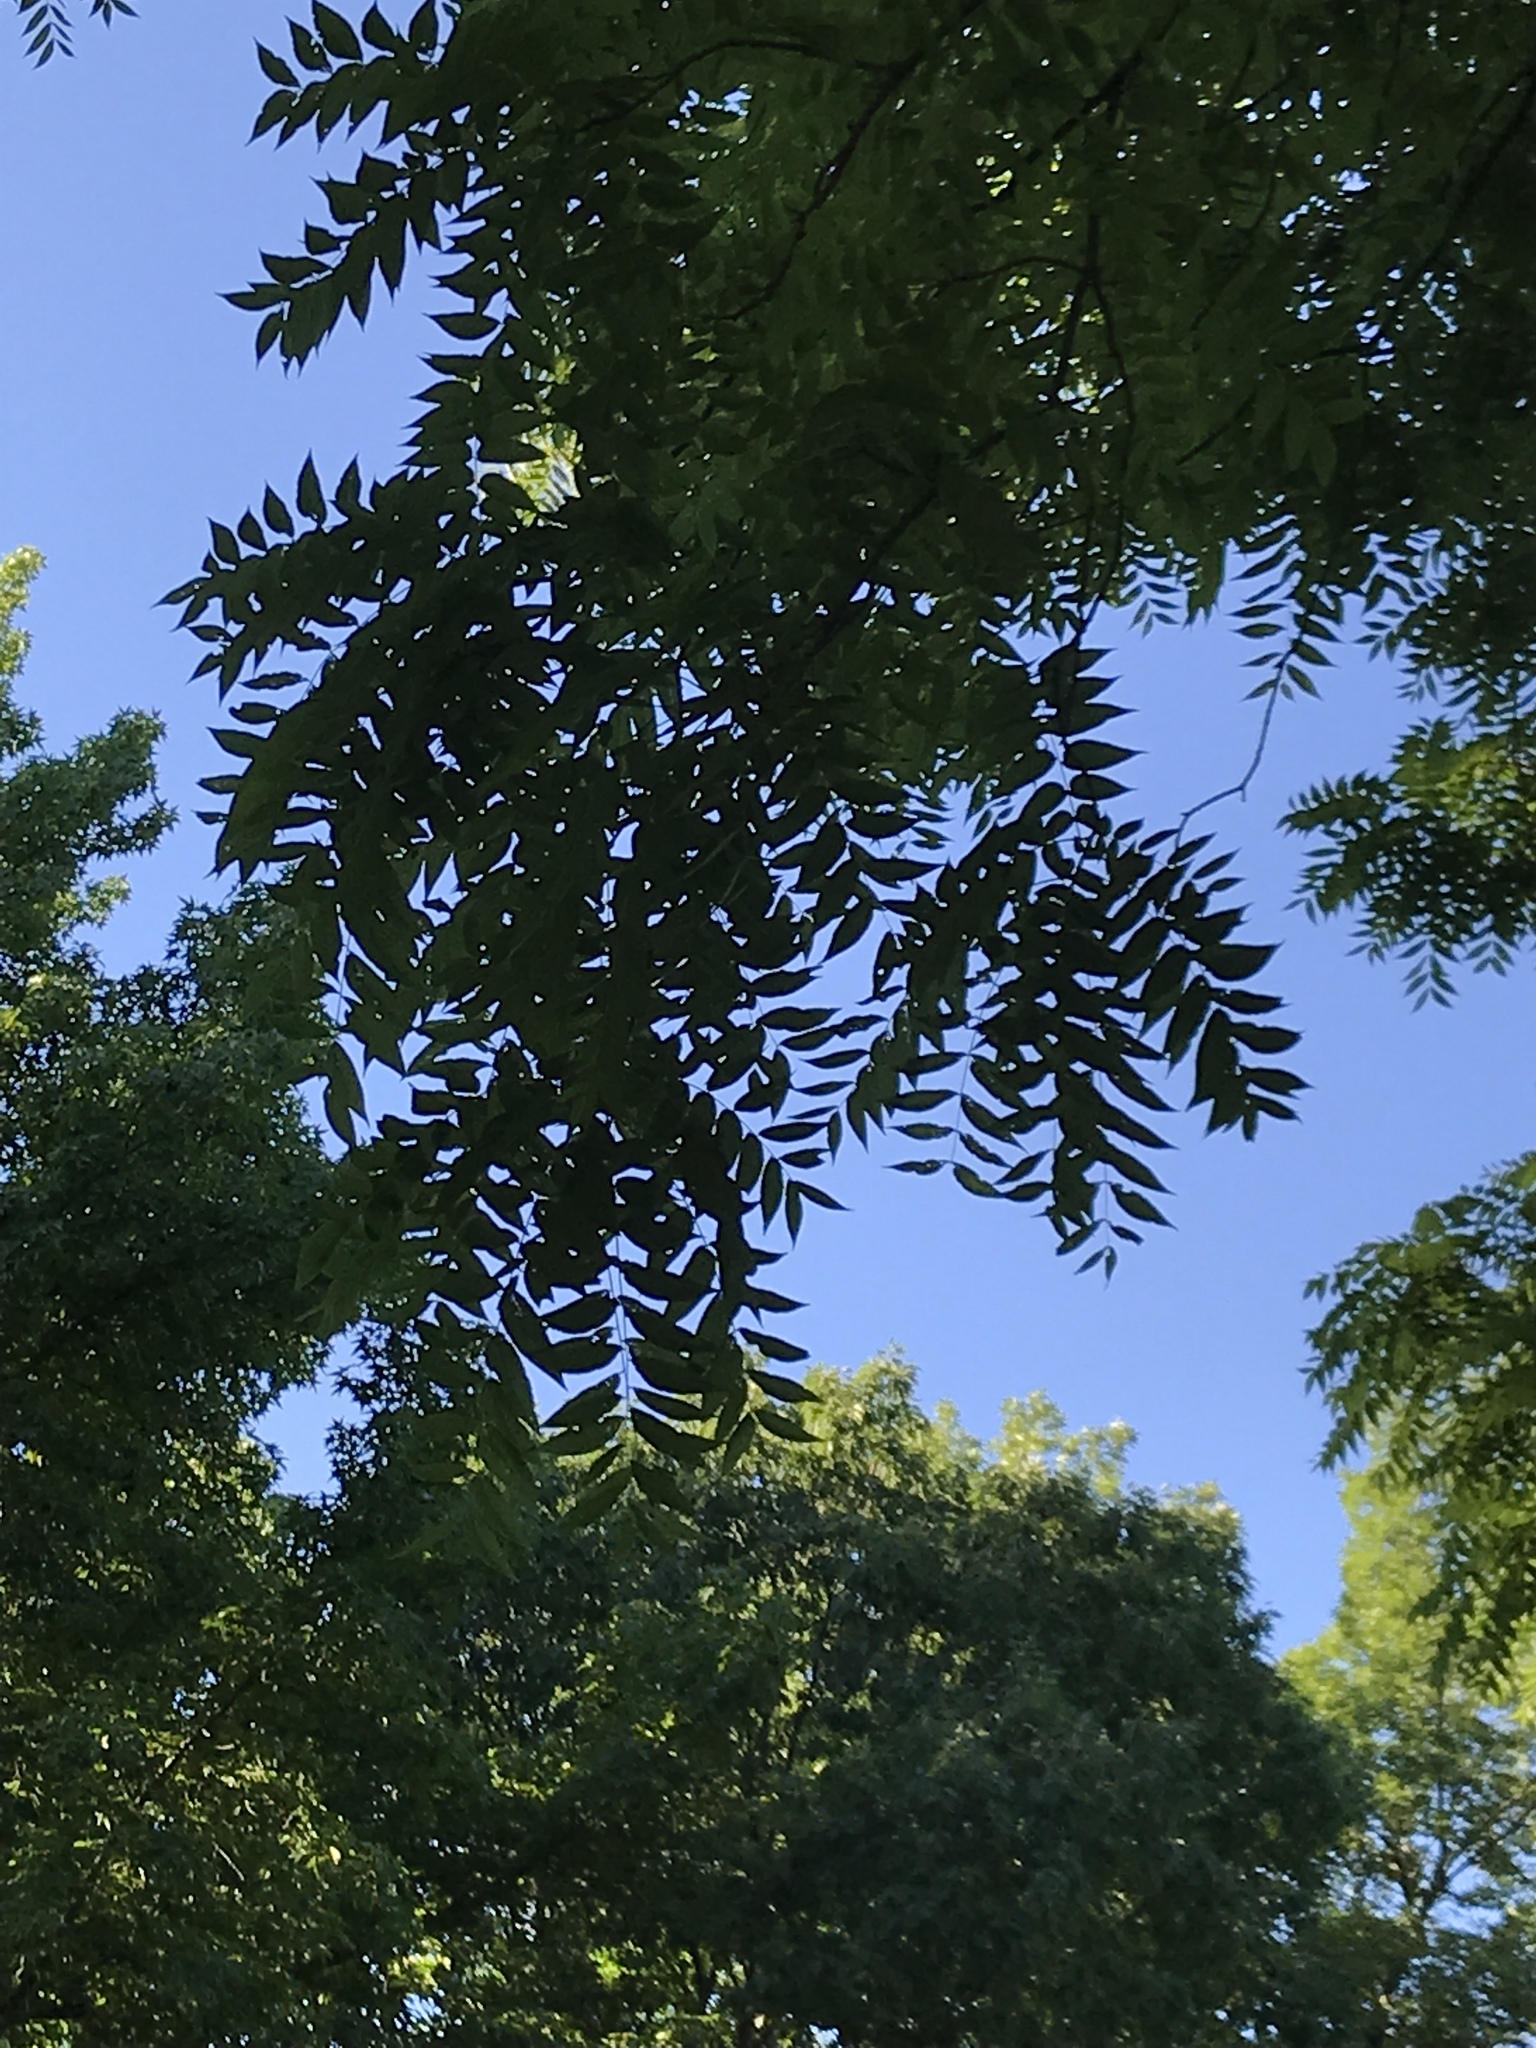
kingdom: Plantae
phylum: Tracheophyta
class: Magnoliopsida
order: Fagales
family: Juglandaceae
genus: Juglans
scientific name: Juglans nigra
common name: Black walnut
